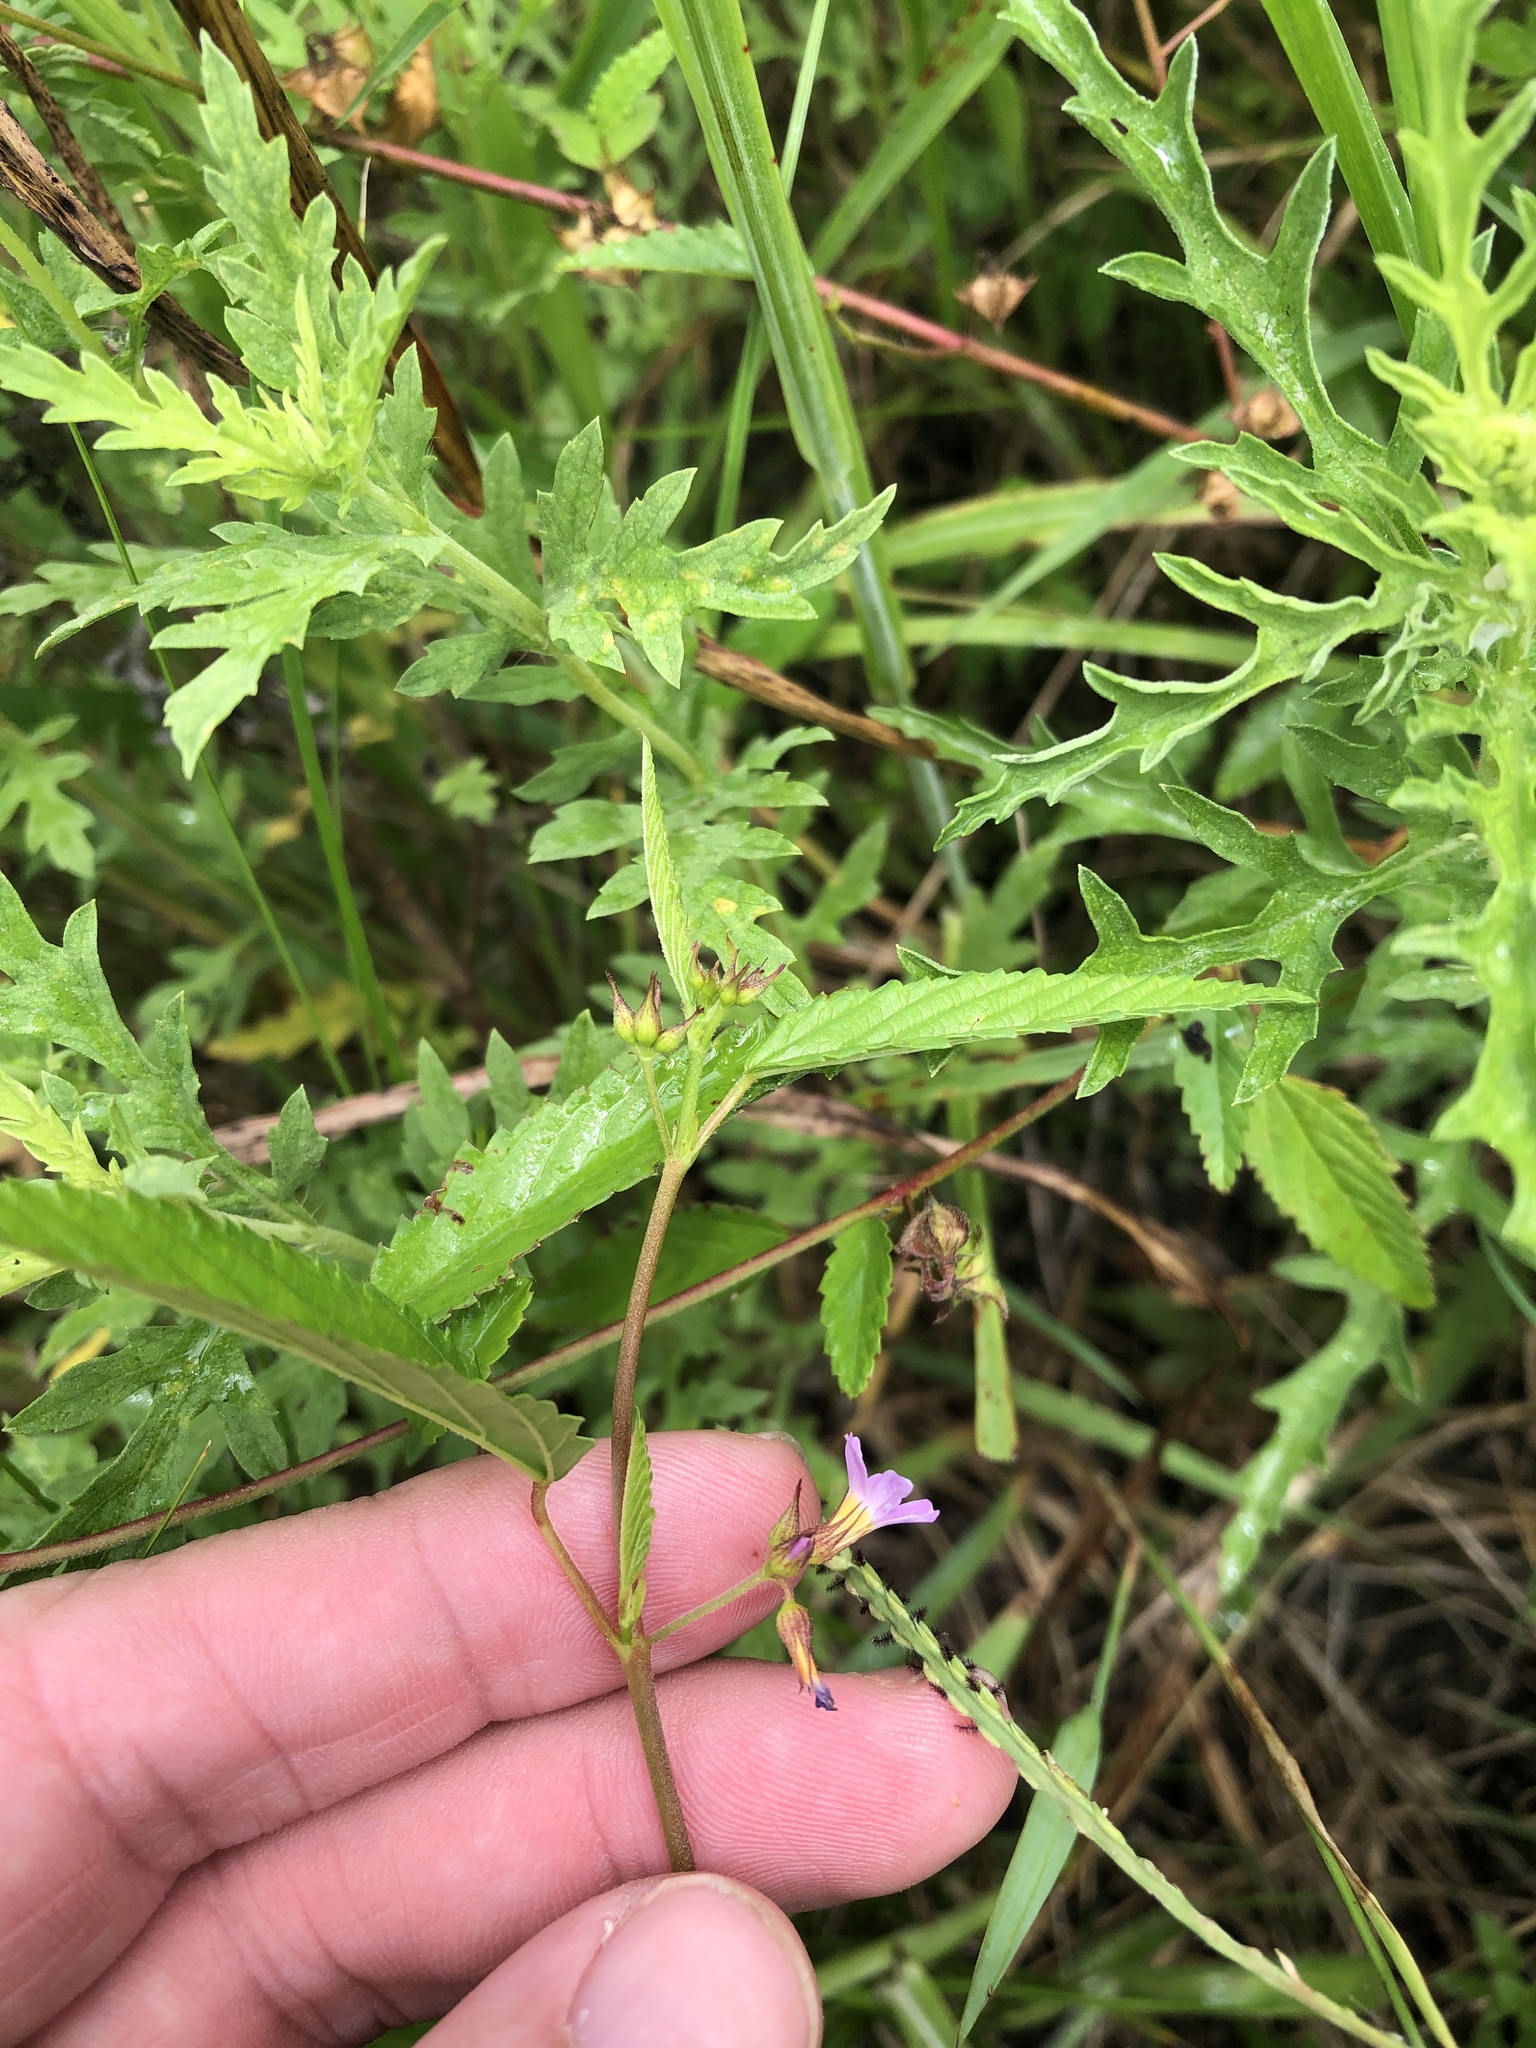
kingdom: Plantae
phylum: Tracheophyta
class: Magnoliopsida
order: Malvales
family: Malvaceae
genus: Melochia
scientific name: Melochia pyramidata
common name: Pyramidflower
